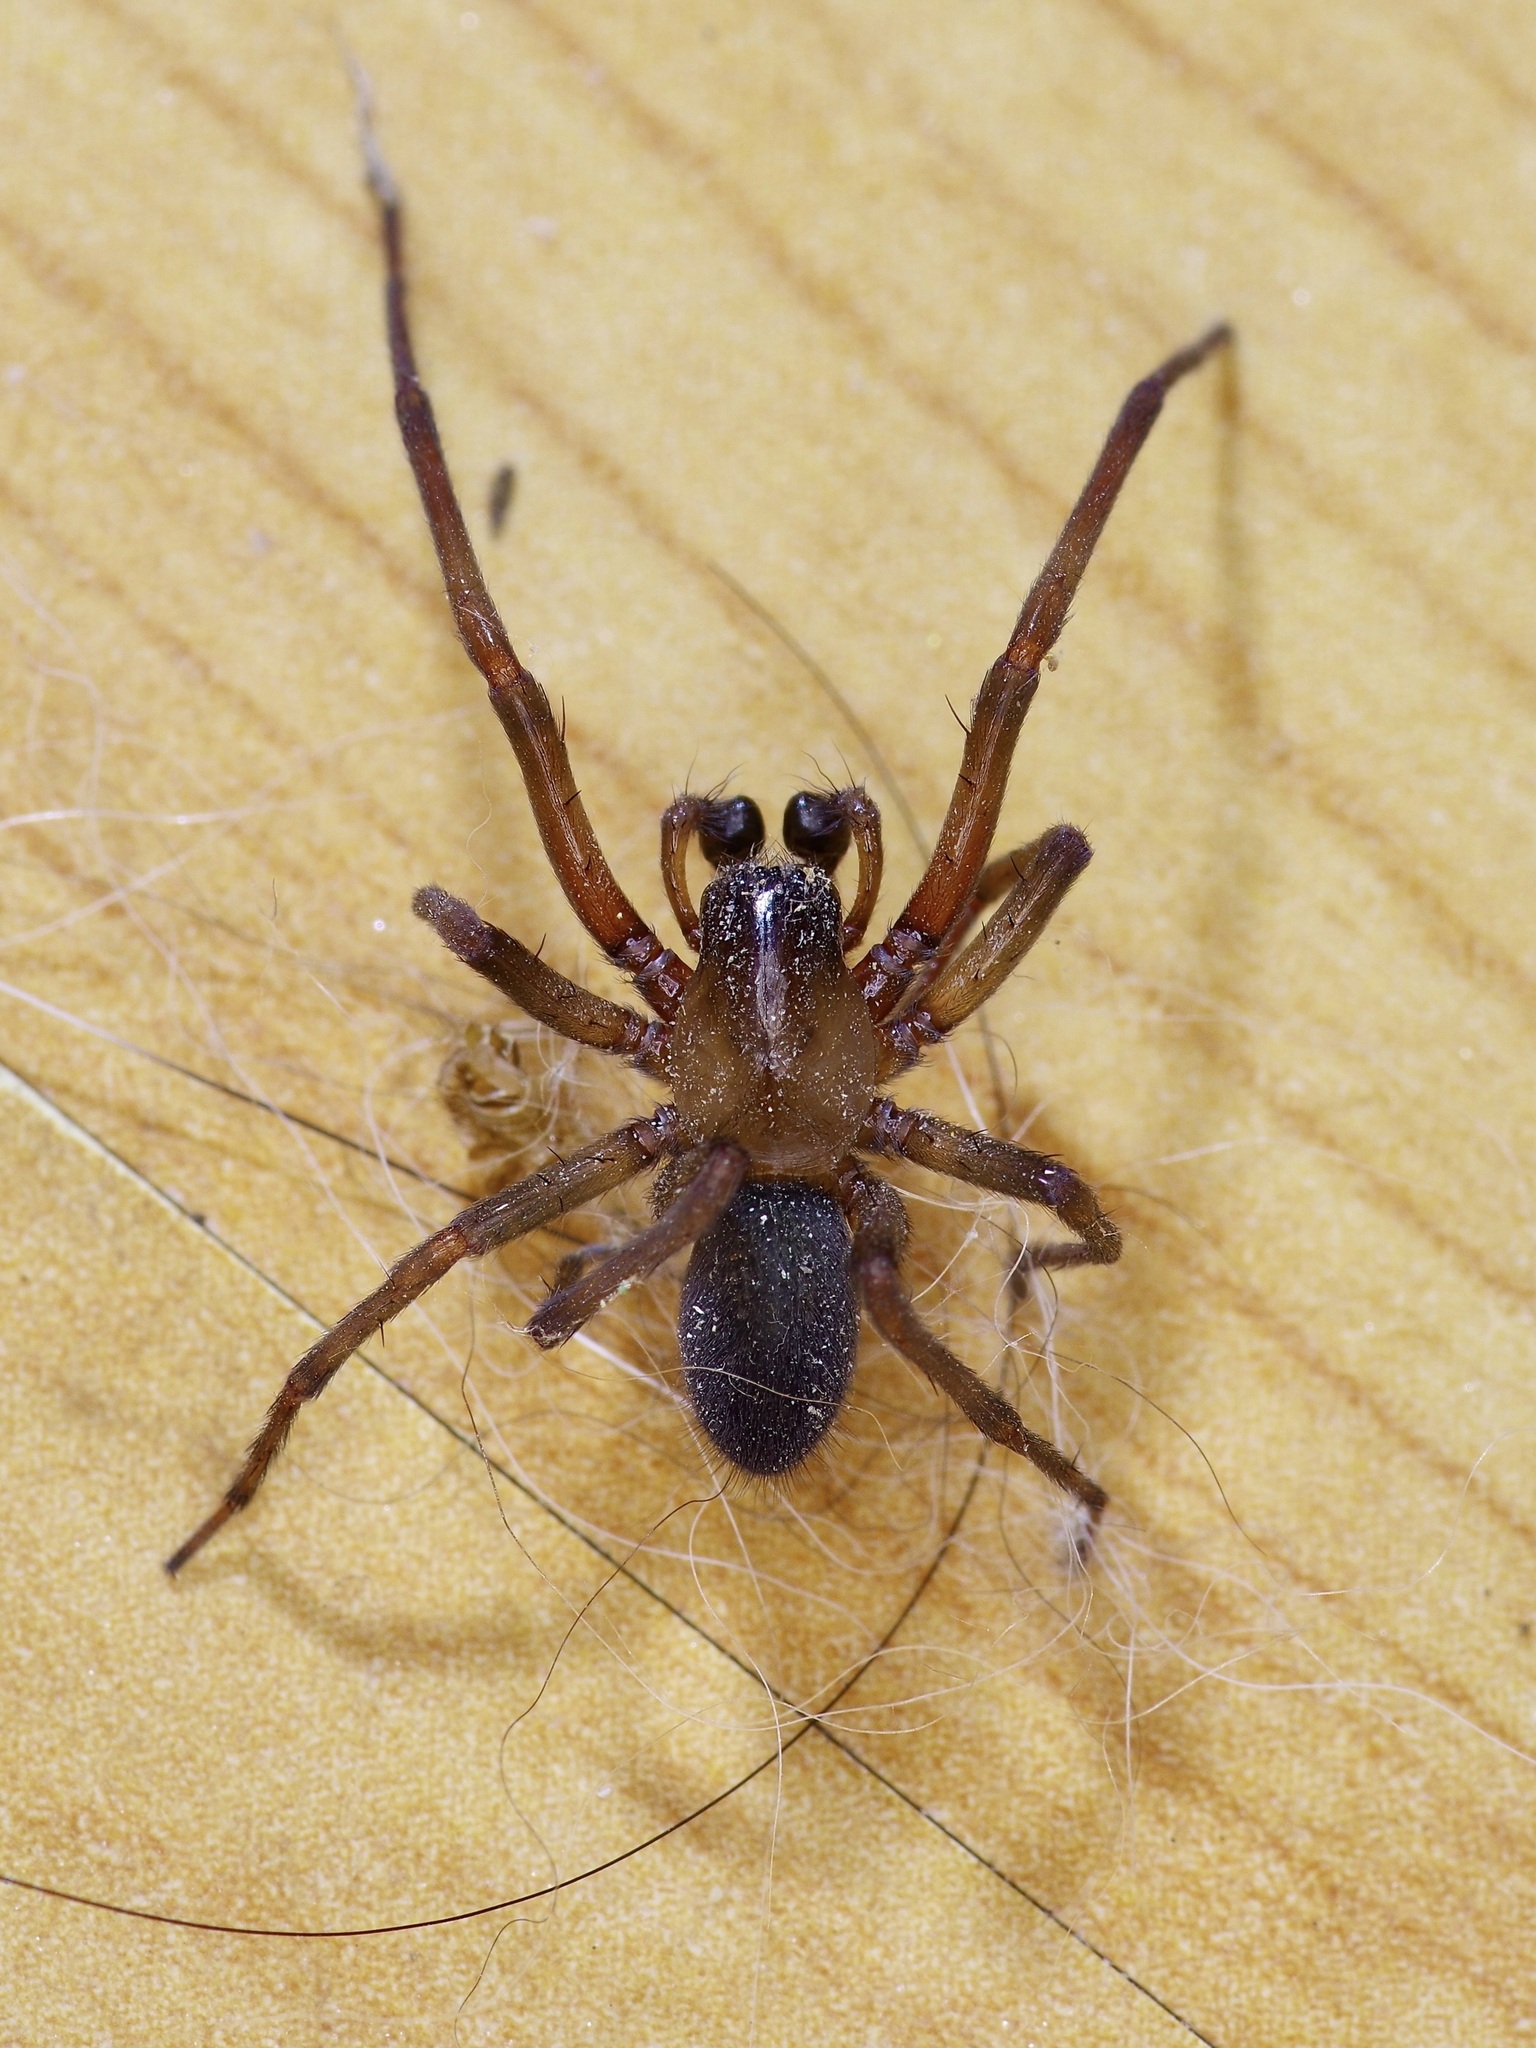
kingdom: Animalia
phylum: Arthropoda
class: Arachnida
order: Araneae
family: Desidae
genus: Metaltella
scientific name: Metaltella simoni
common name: Cribellate spider
